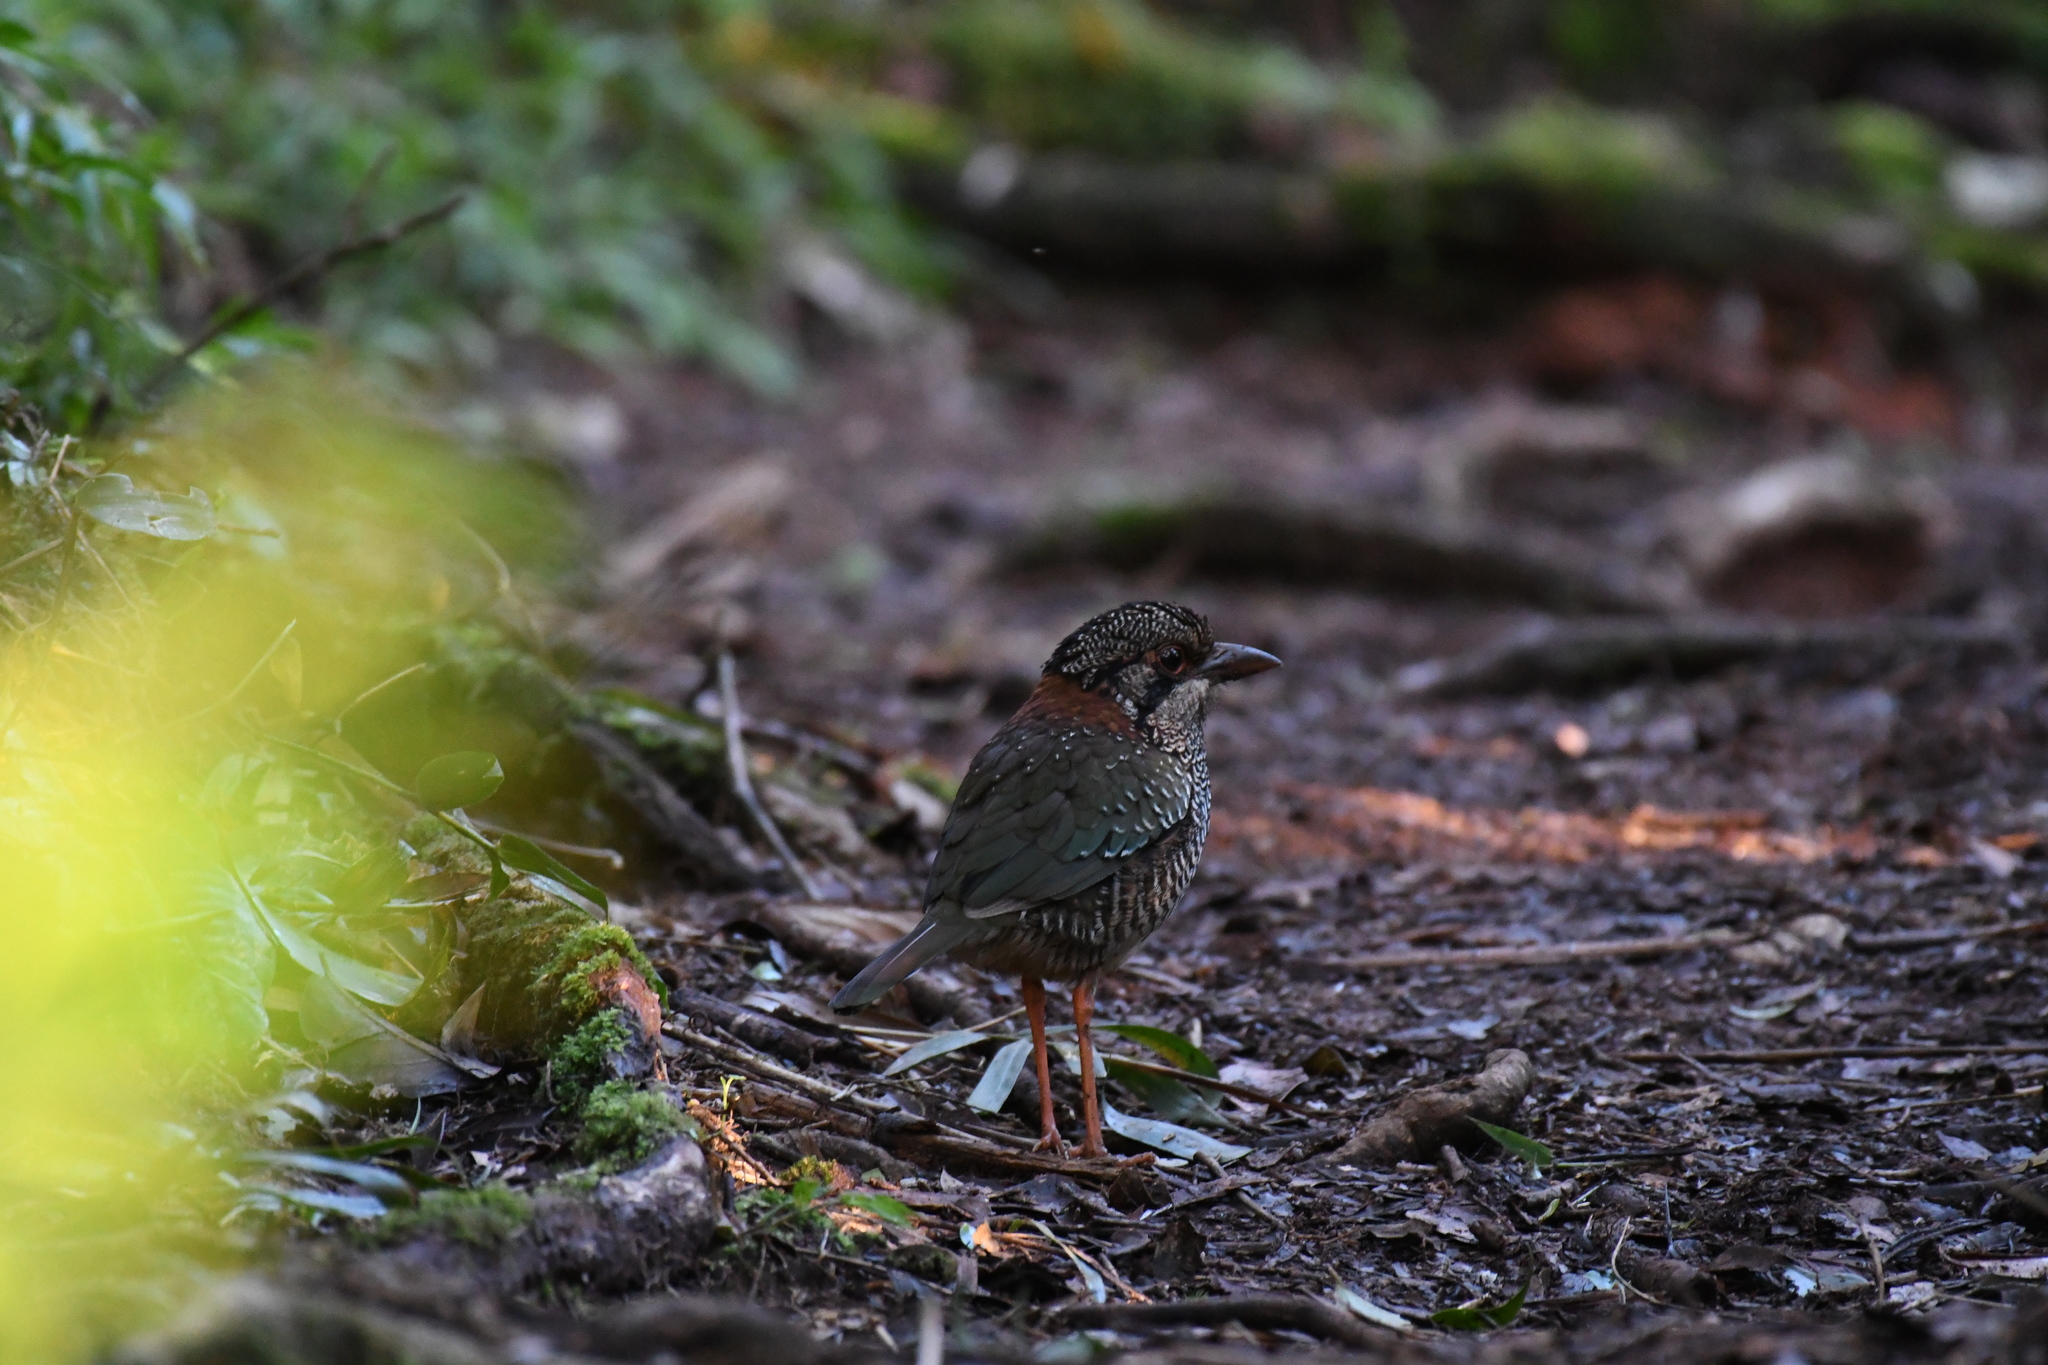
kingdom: Animalia
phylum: Chordata
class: Aves
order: Coraciiformes
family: Brachypteraciidae
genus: Geobiastes
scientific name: Geobiastes squamiger
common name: Scaly ground-roller
